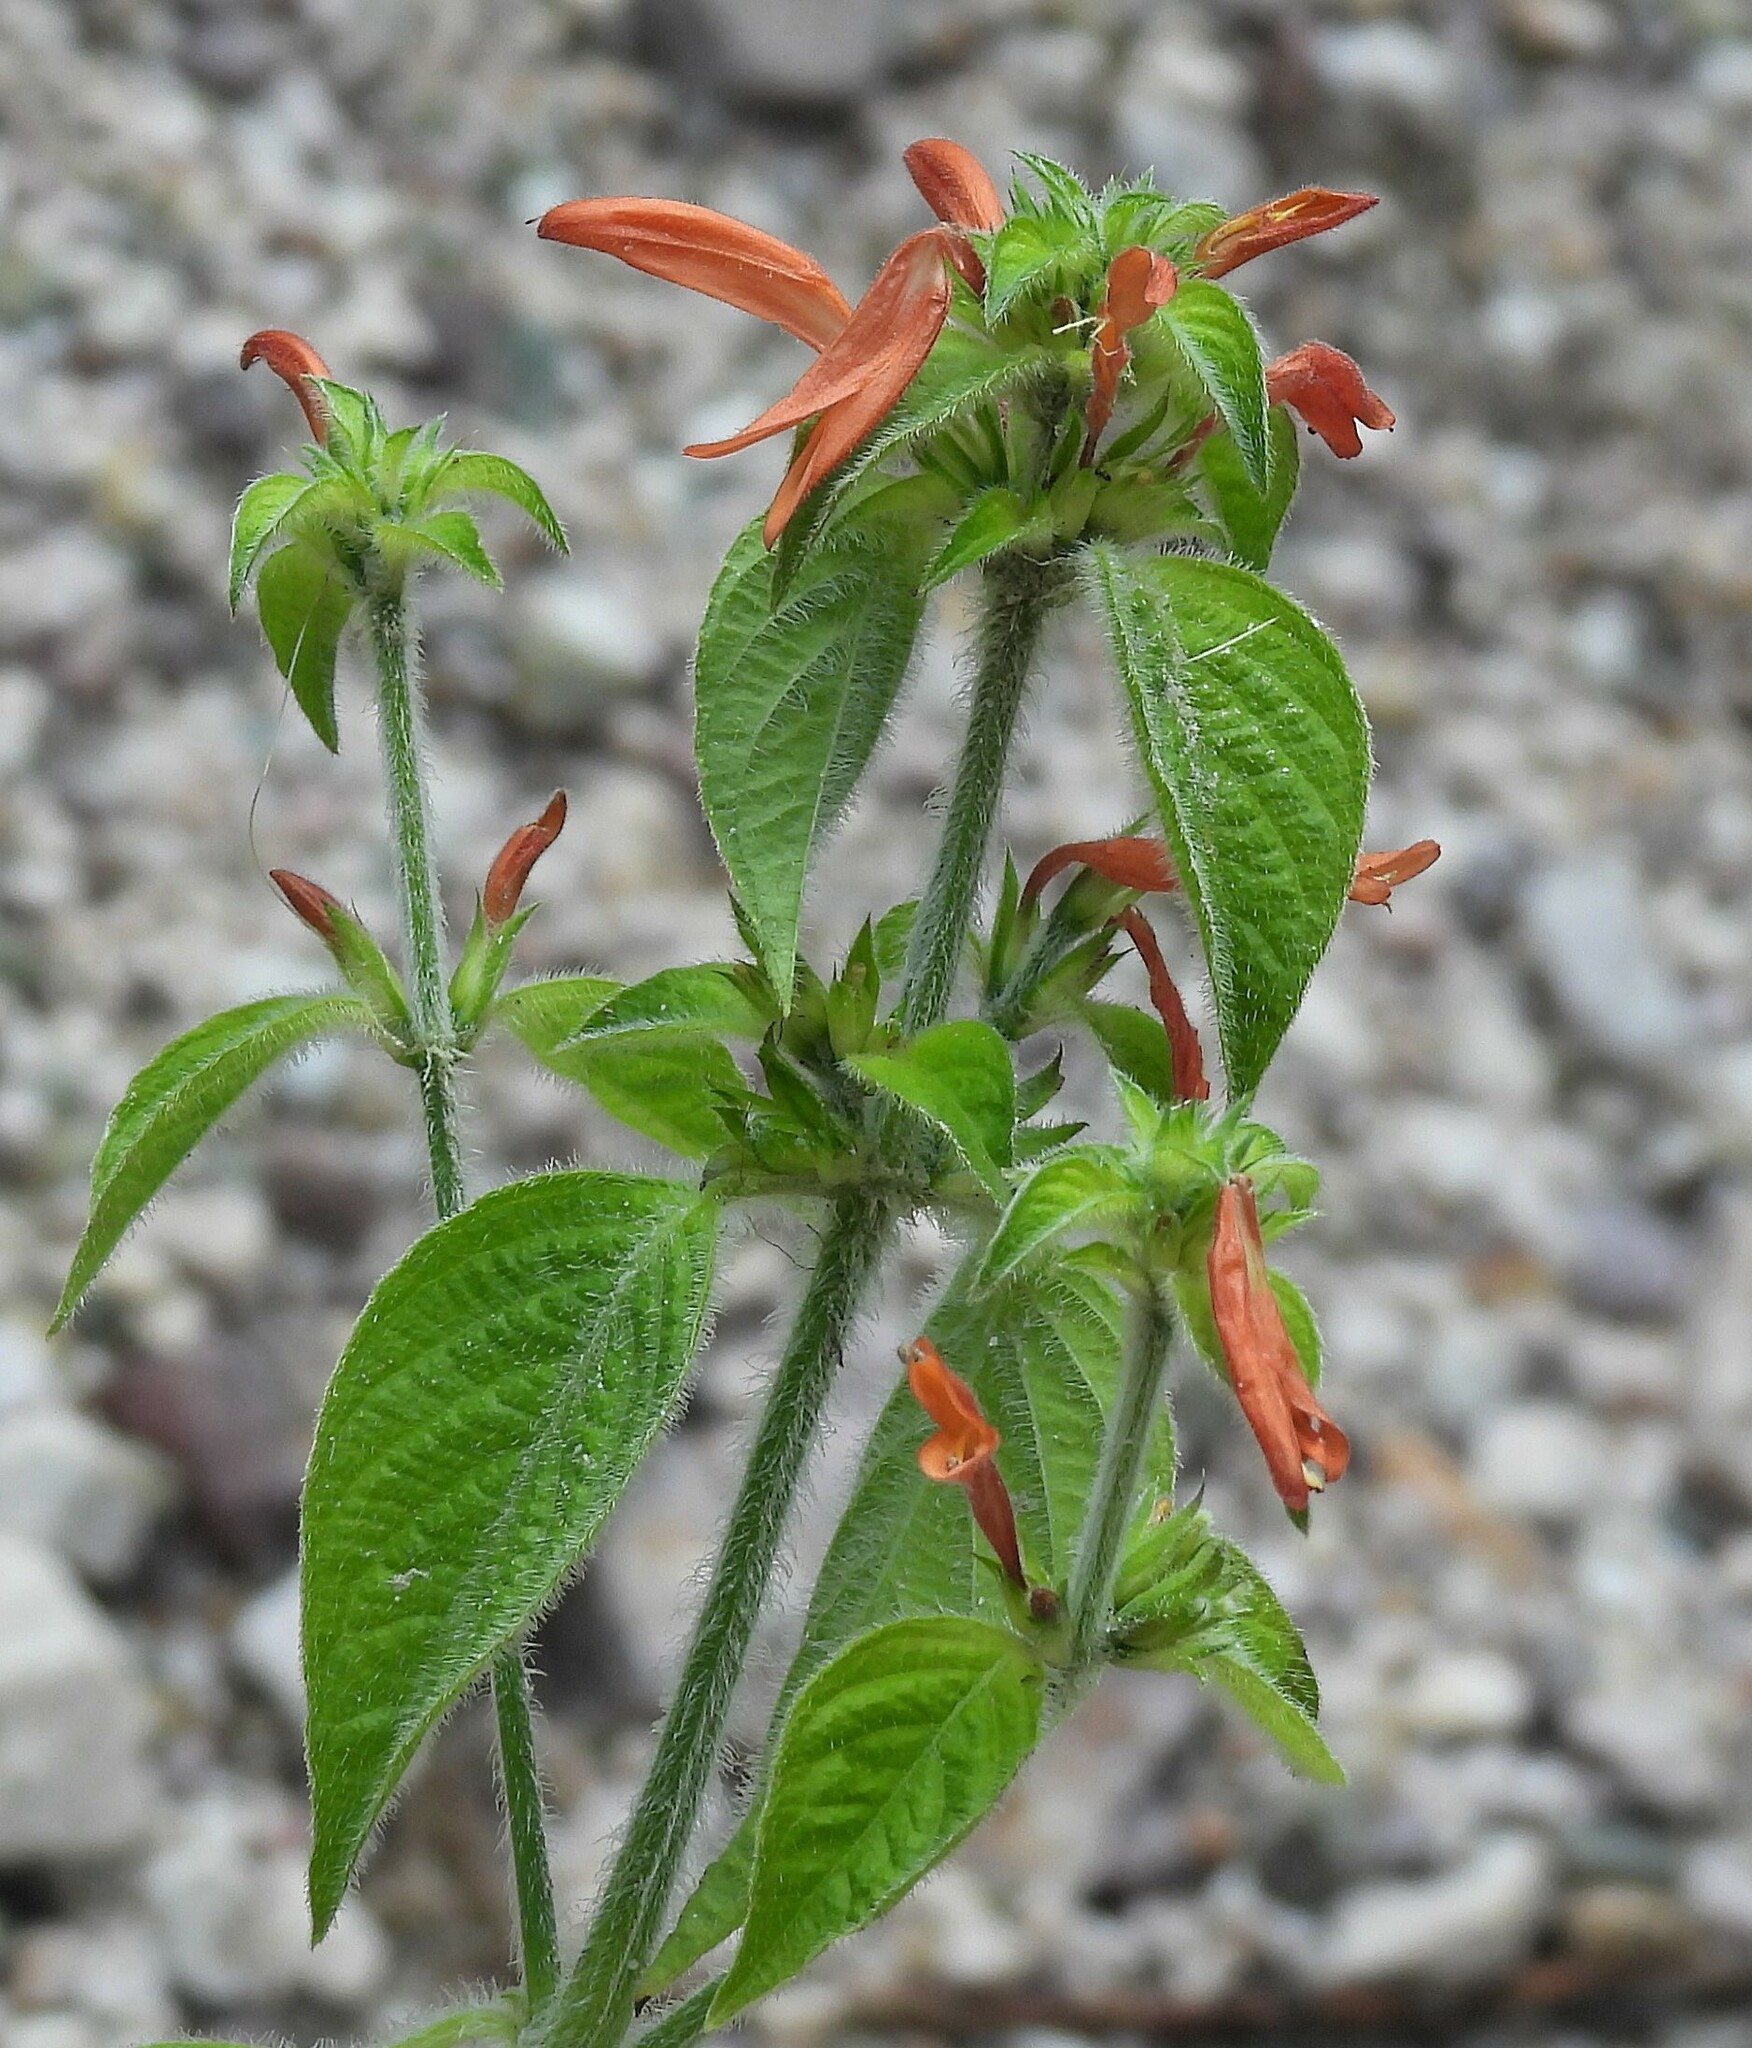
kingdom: Plantae
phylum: Tracheophyta
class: Magnoliopsida
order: Lamiales
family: Acanthaceae
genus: Dicliptera
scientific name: Dicliptera cabrerae
